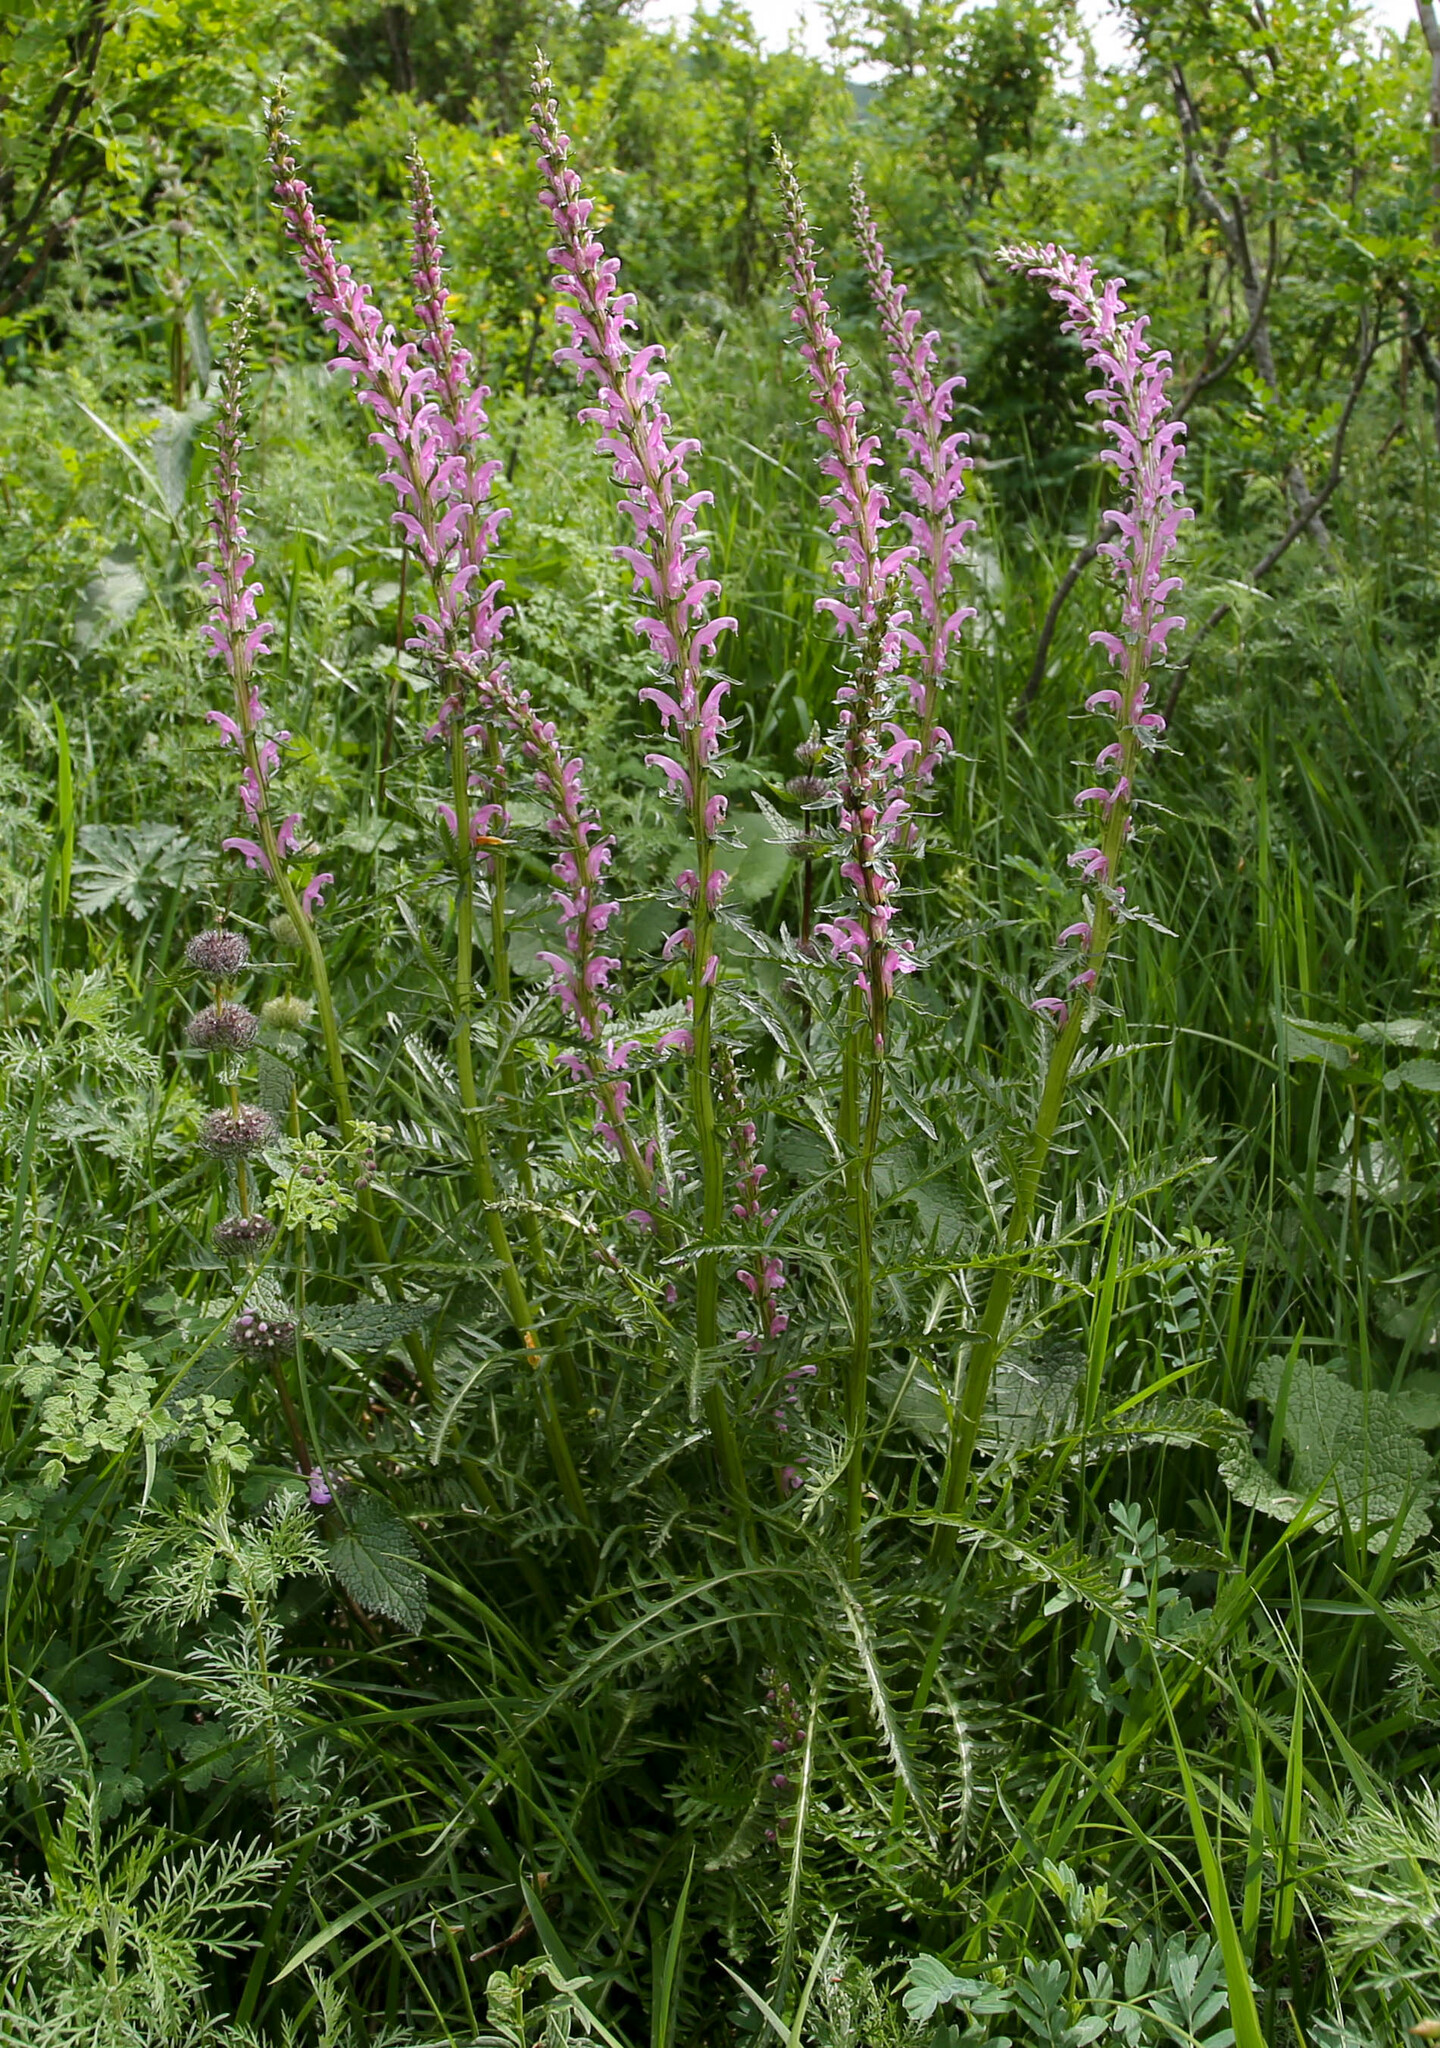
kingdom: Plantae
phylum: Tracheophyta
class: Magnoliopsida
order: Lamiales
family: Orobanchaceae
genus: Pedicularis
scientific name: Pedicularis elata
